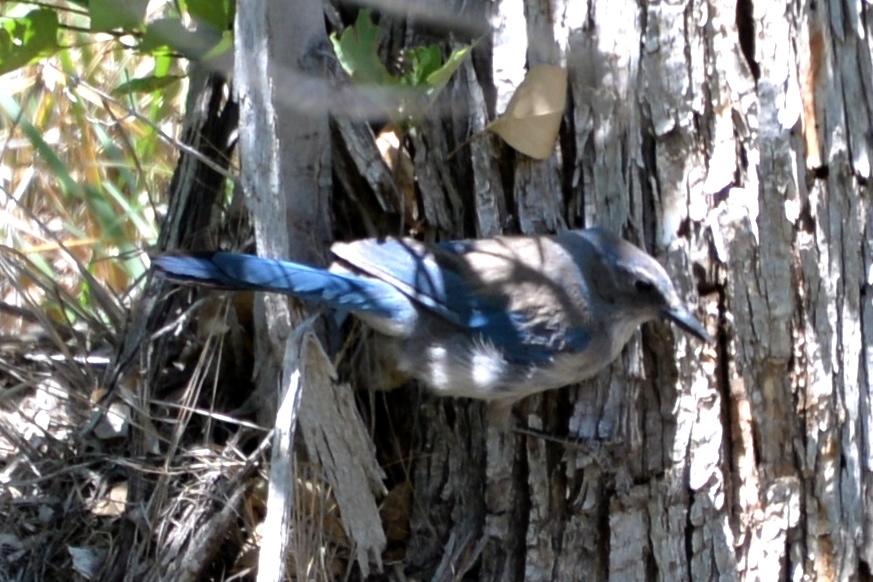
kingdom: Animalia
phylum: Chordata
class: Aves
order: Passeriformes
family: Corvidae
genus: Aphelocoma
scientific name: Aphelocoma woodhouseii
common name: Woodhouse's scrub-jay
